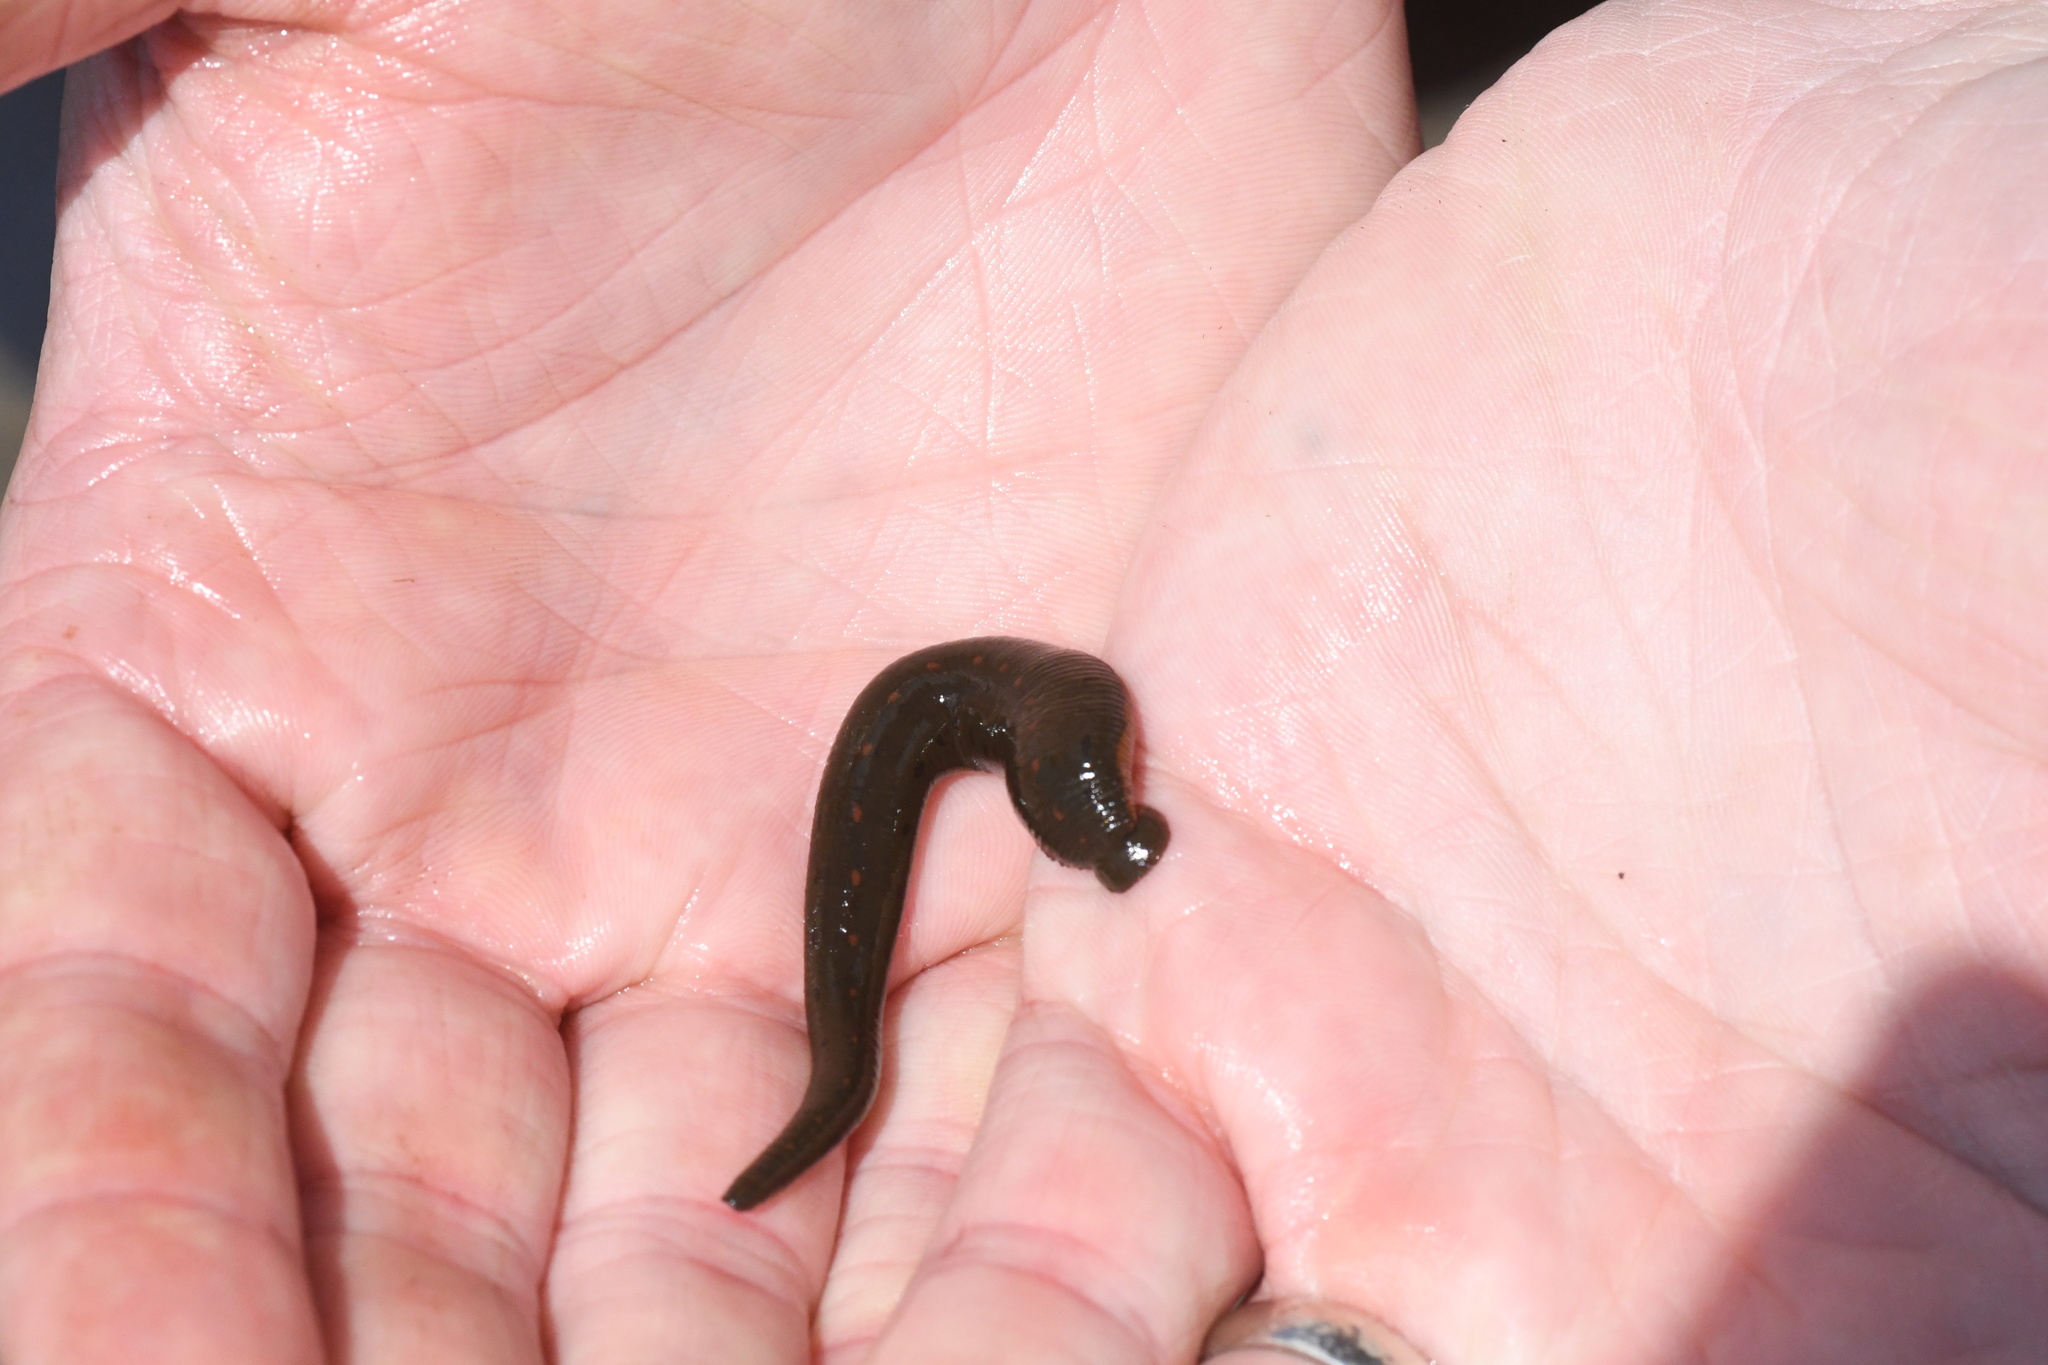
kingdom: Animalia
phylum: Annelida
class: Clitellata
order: Arhynchobdellida
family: Hirudinidae
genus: Macrobdella
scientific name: Macrobdella decora
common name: North american leech
